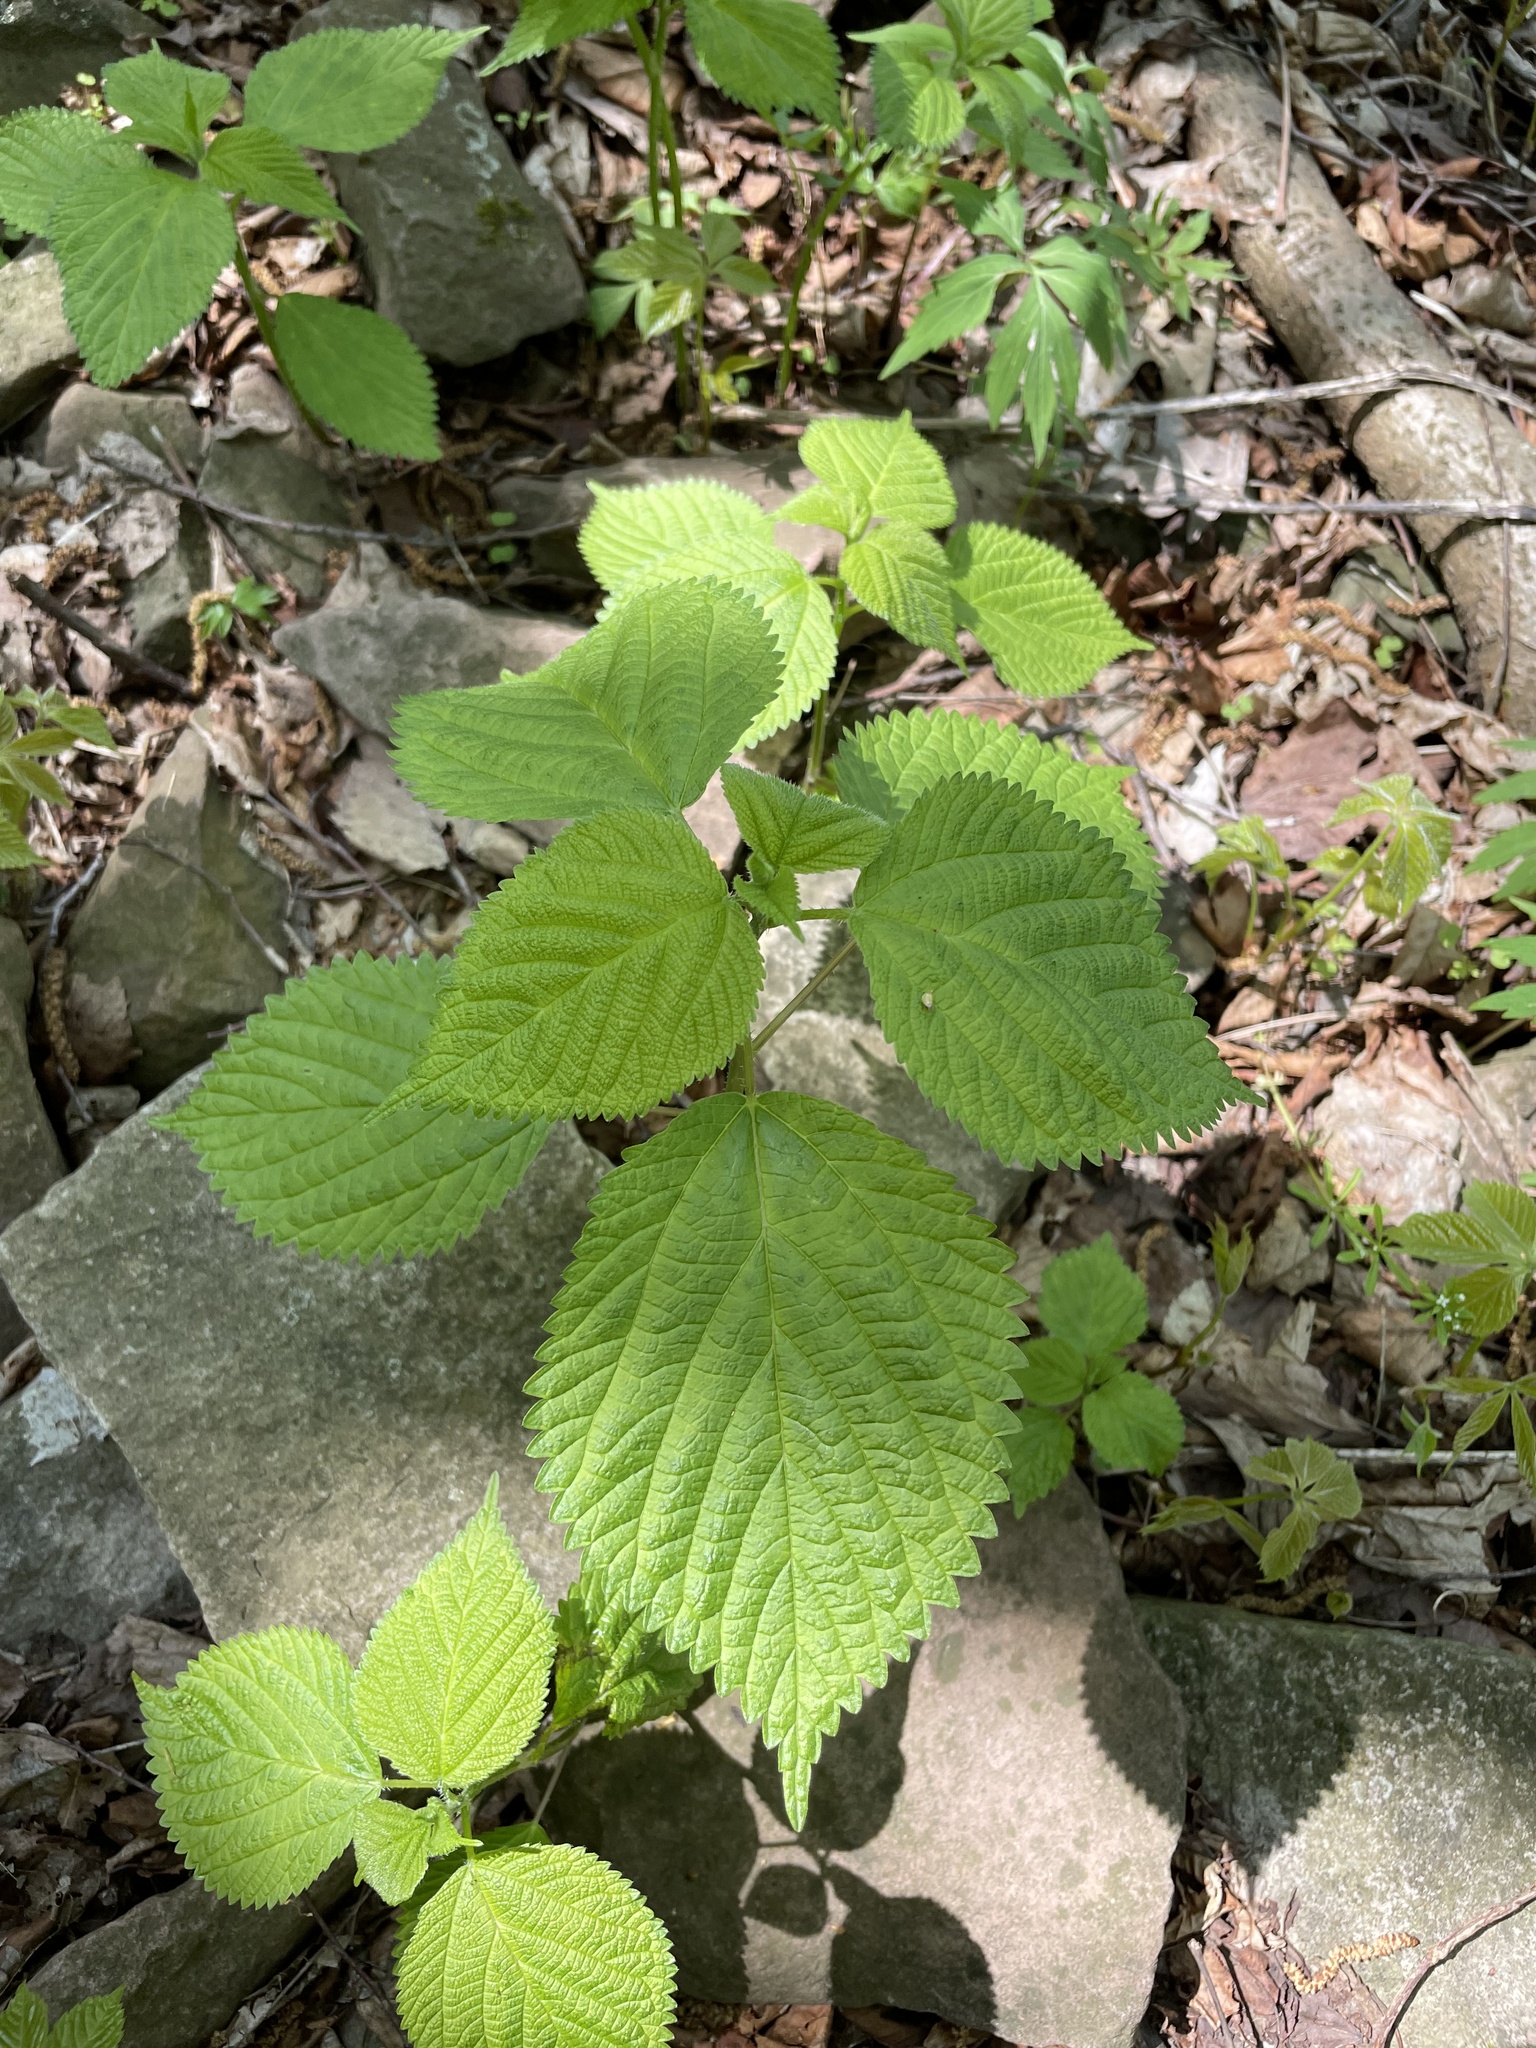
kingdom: Plantae
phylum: Tracheophyta
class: Magnoliopsida
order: Rosales
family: Urticaceae
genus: Laportea
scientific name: Laportea canadensis
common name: Canada nettle
